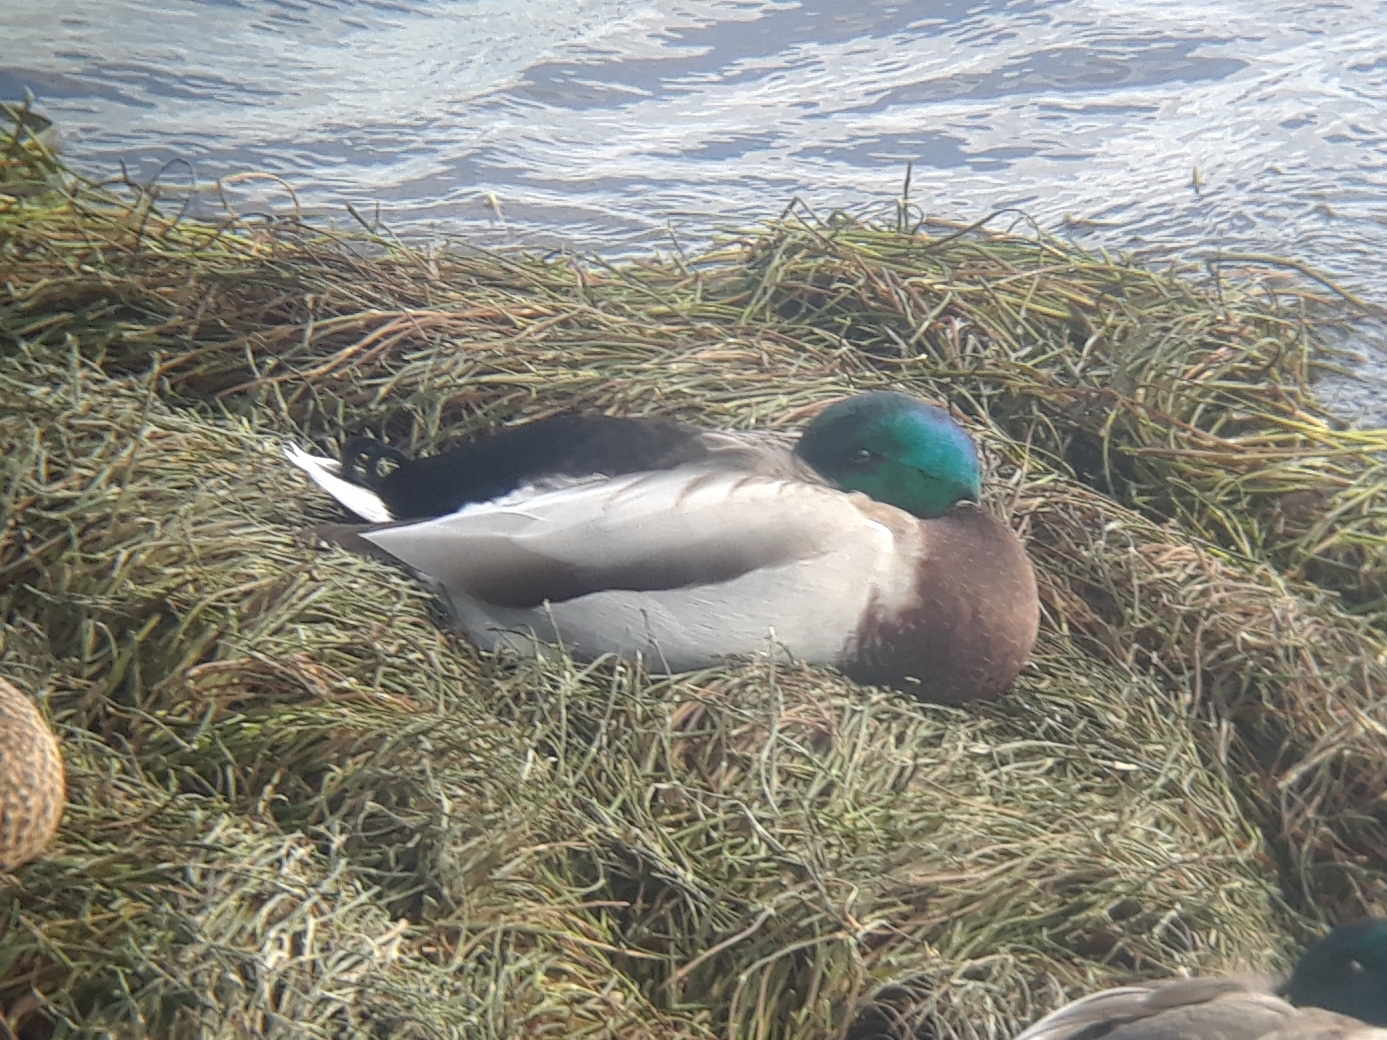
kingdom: Animalia
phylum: Chordata
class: Aves
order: Anseriformes
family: Anatidae
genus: Anas
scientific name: Anas platyrhynchos
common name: Mallard
